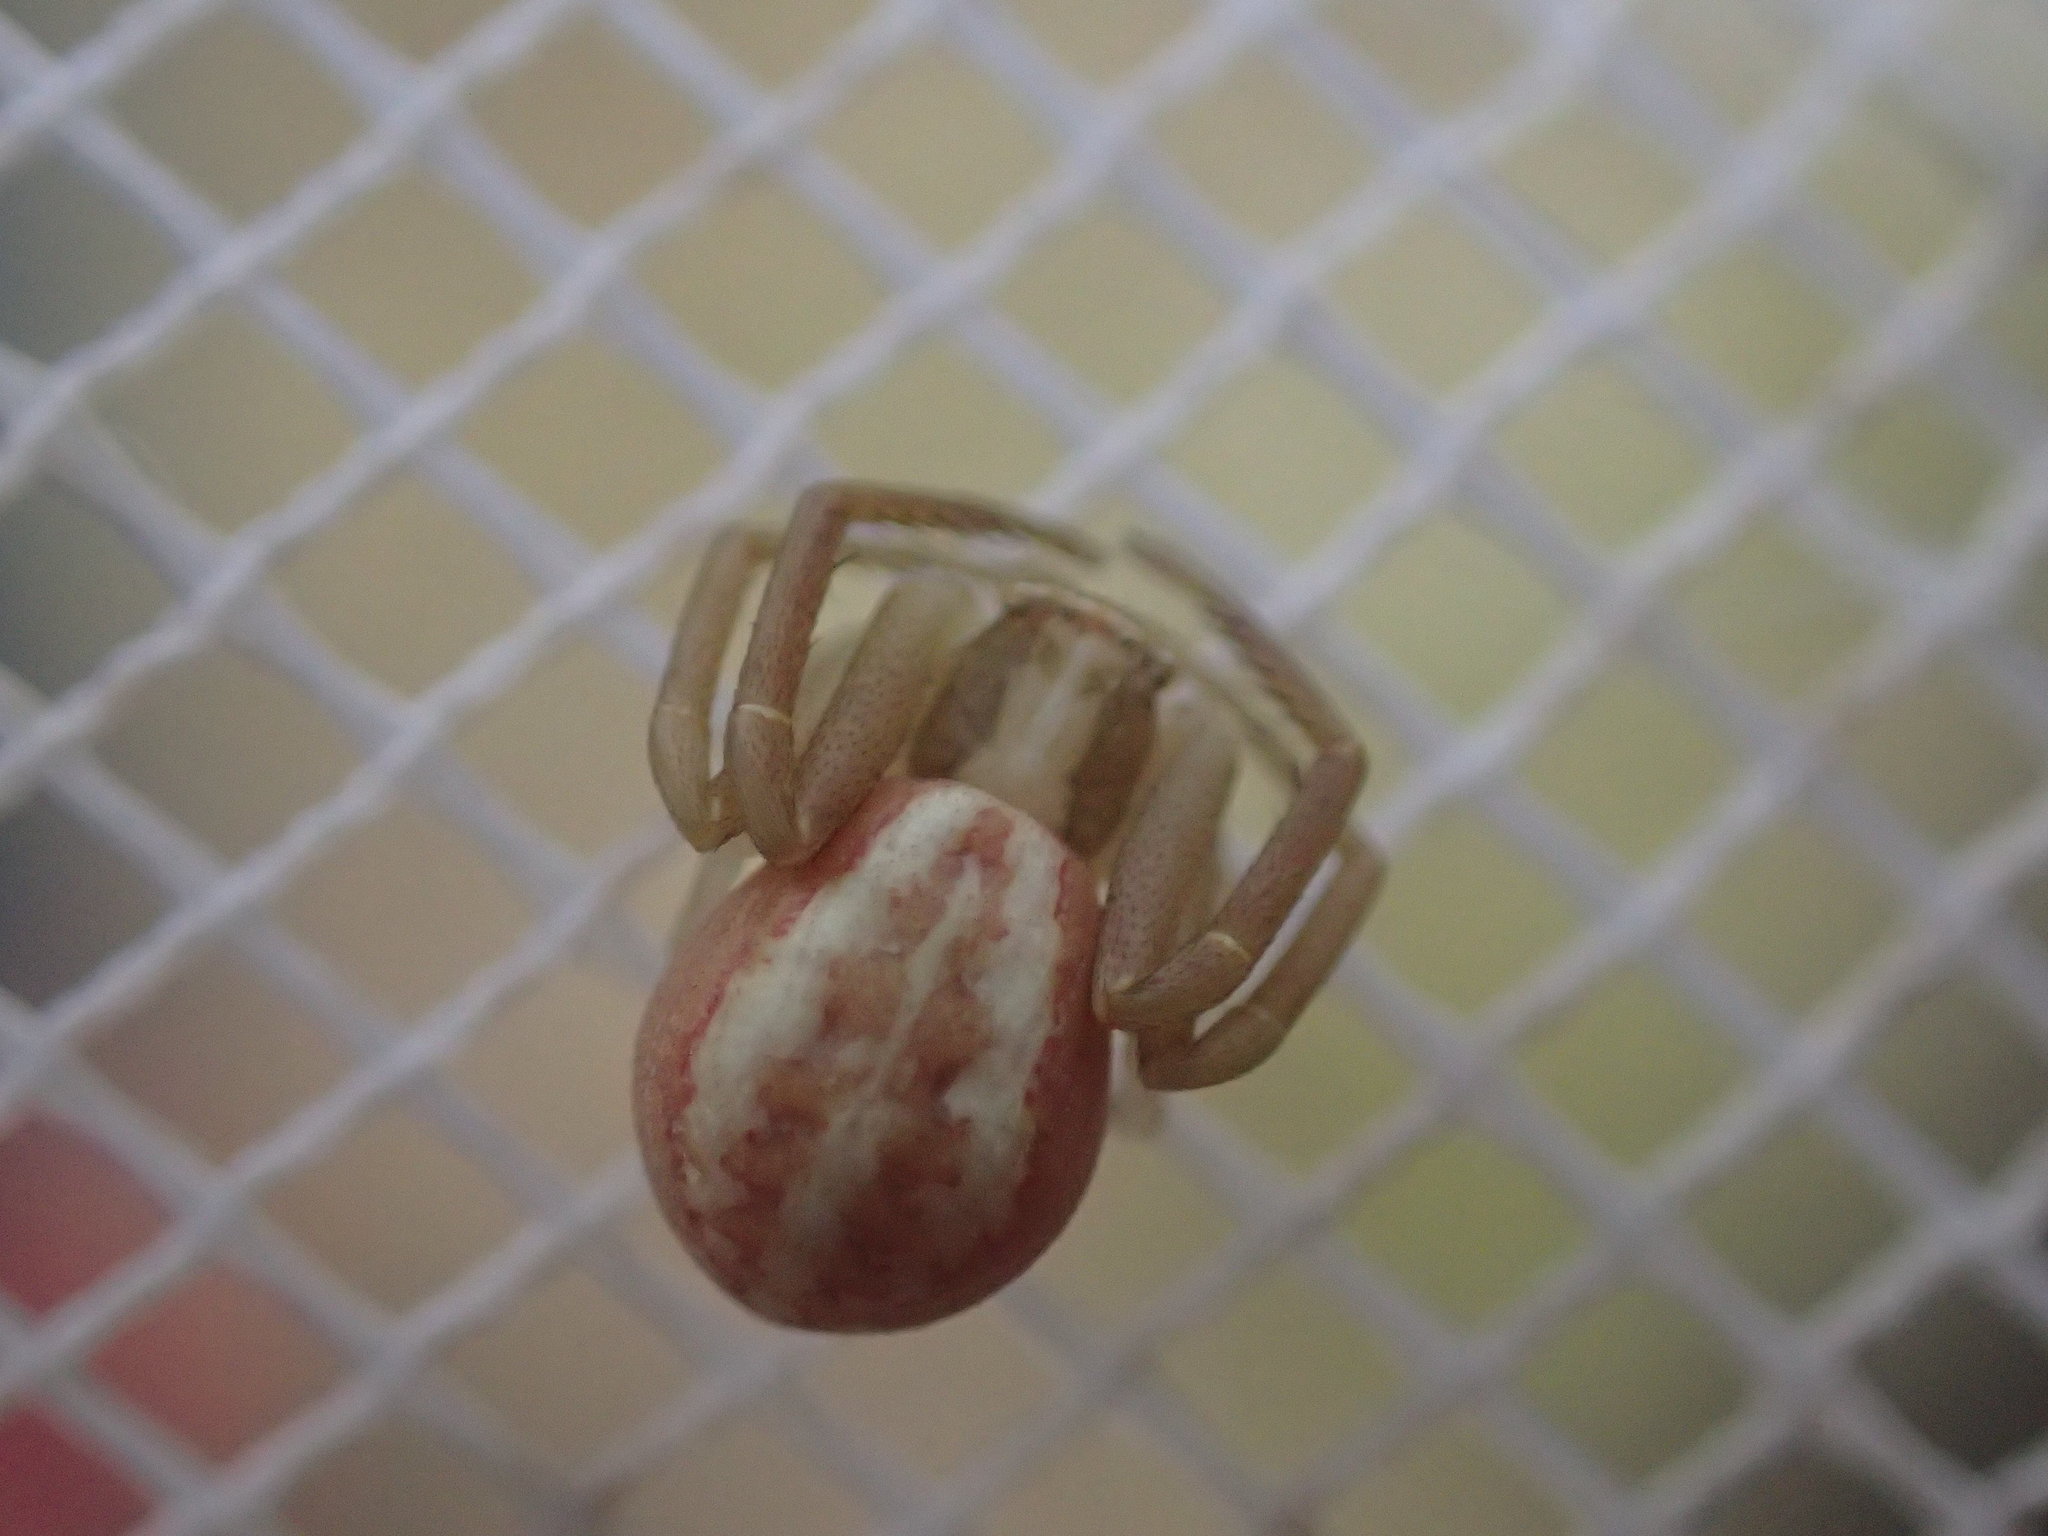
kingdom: Animalia
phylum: Arthropoda
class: Arachnida
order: Araneae
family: Thomisidae
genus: Runcinia
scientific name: Runcinia grammica
